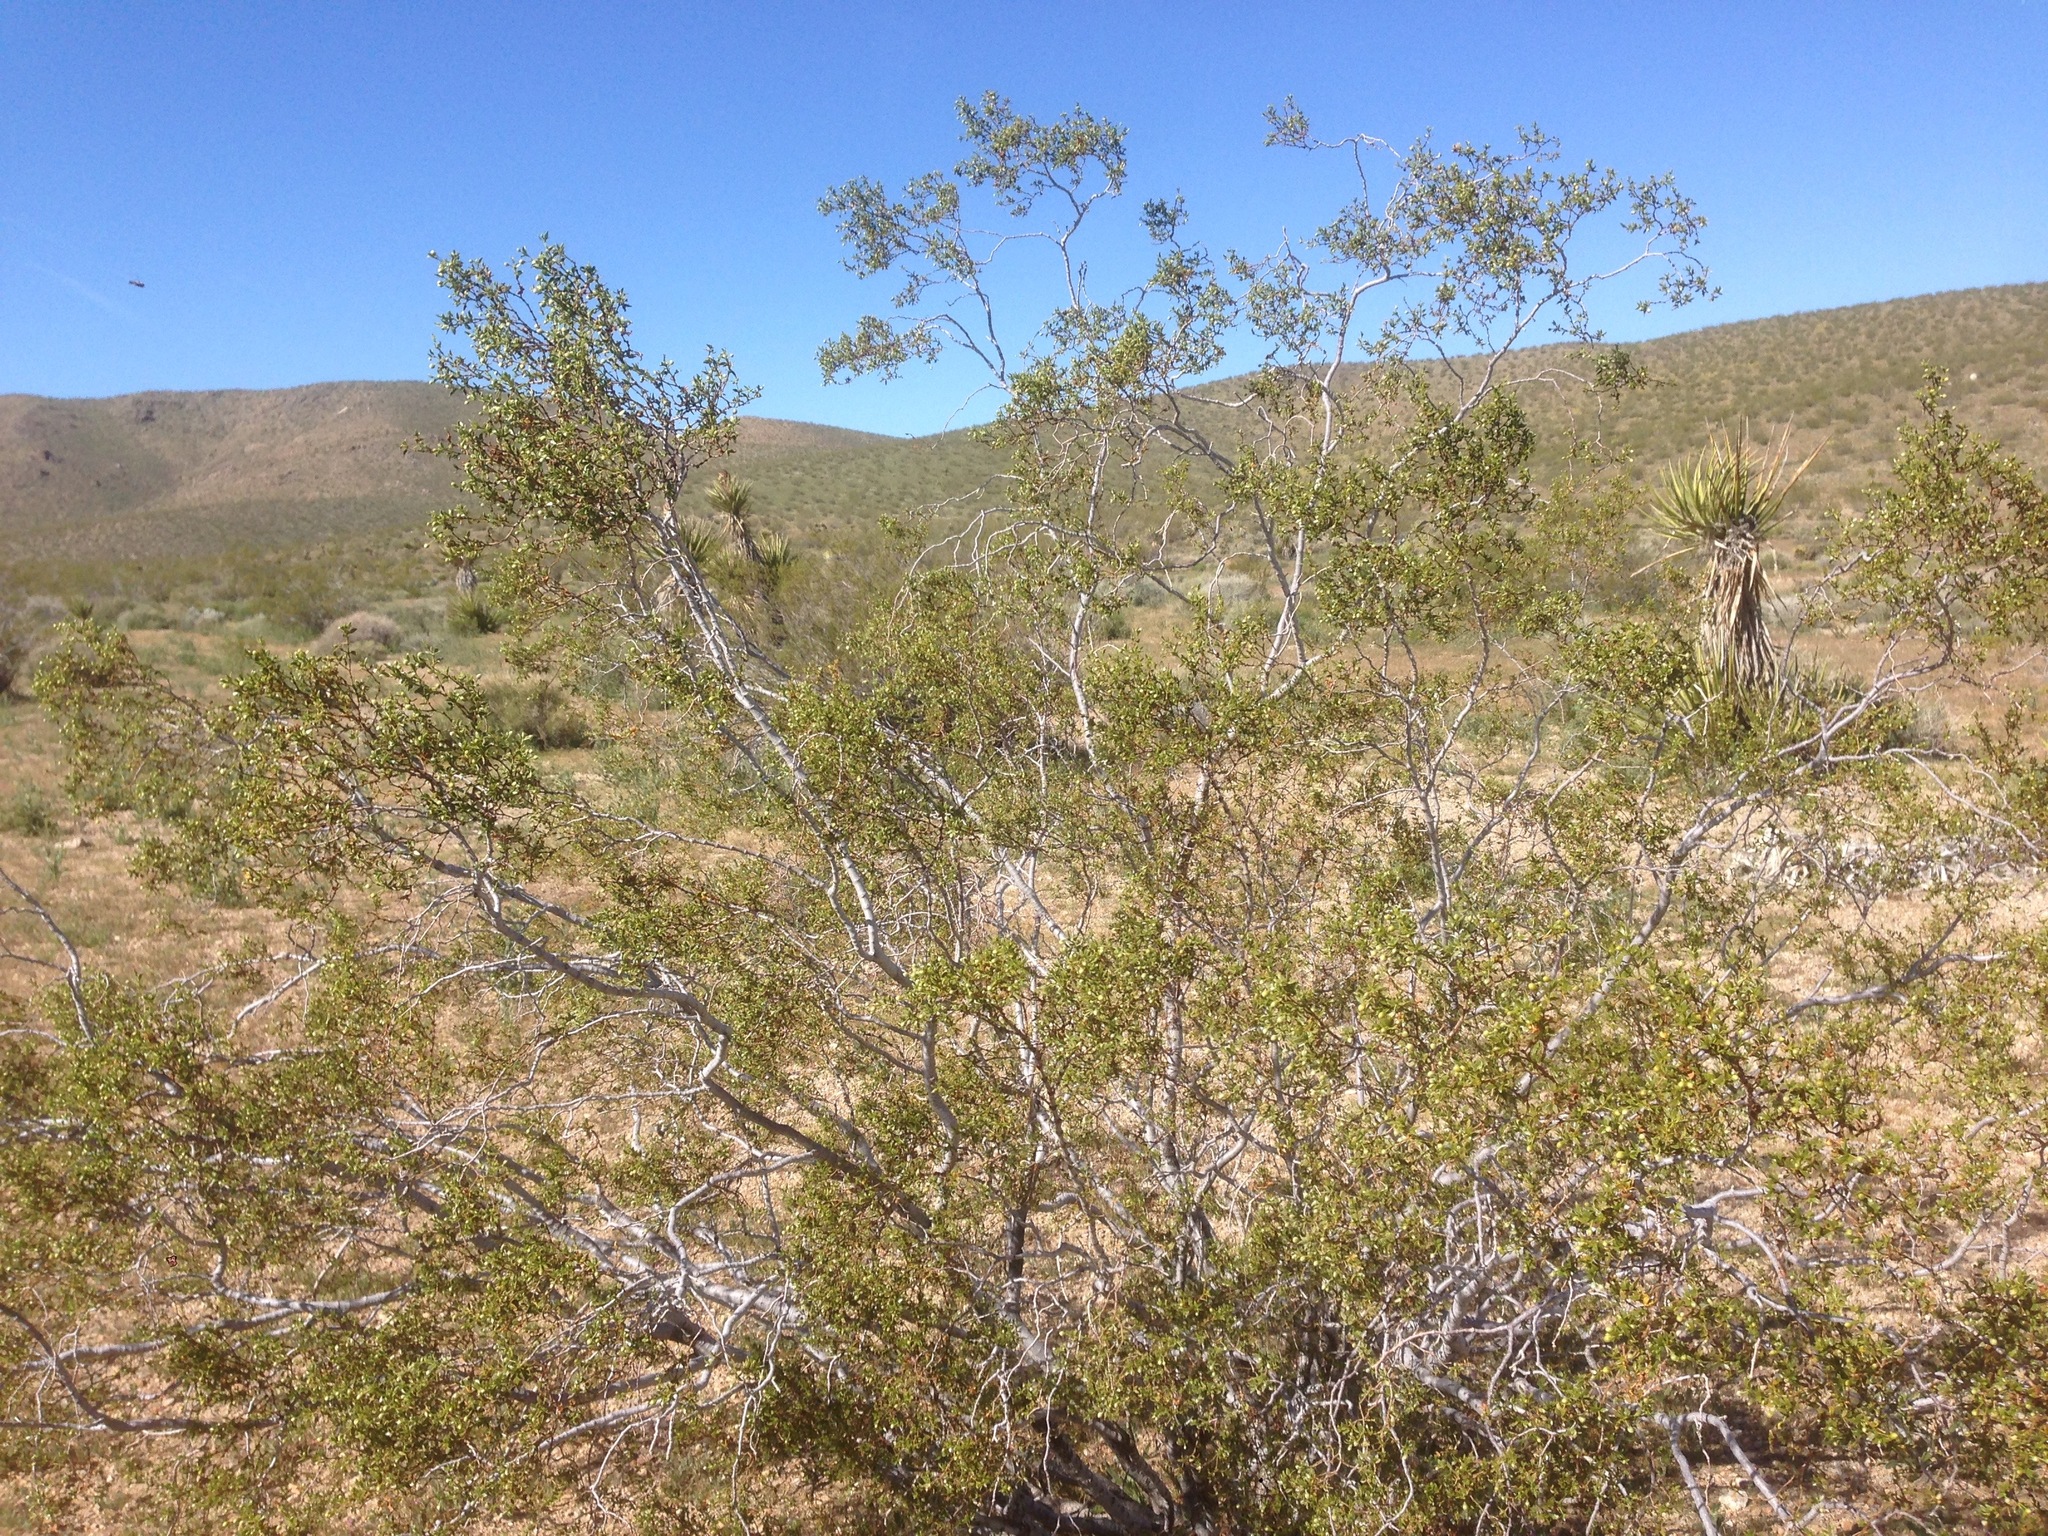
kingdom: Plantae
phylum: Tracheophyta
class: Magnoliopsida
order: Zygophyllales
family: Zygophyllaceae
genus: Larrea
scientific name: Larrea tridentata
